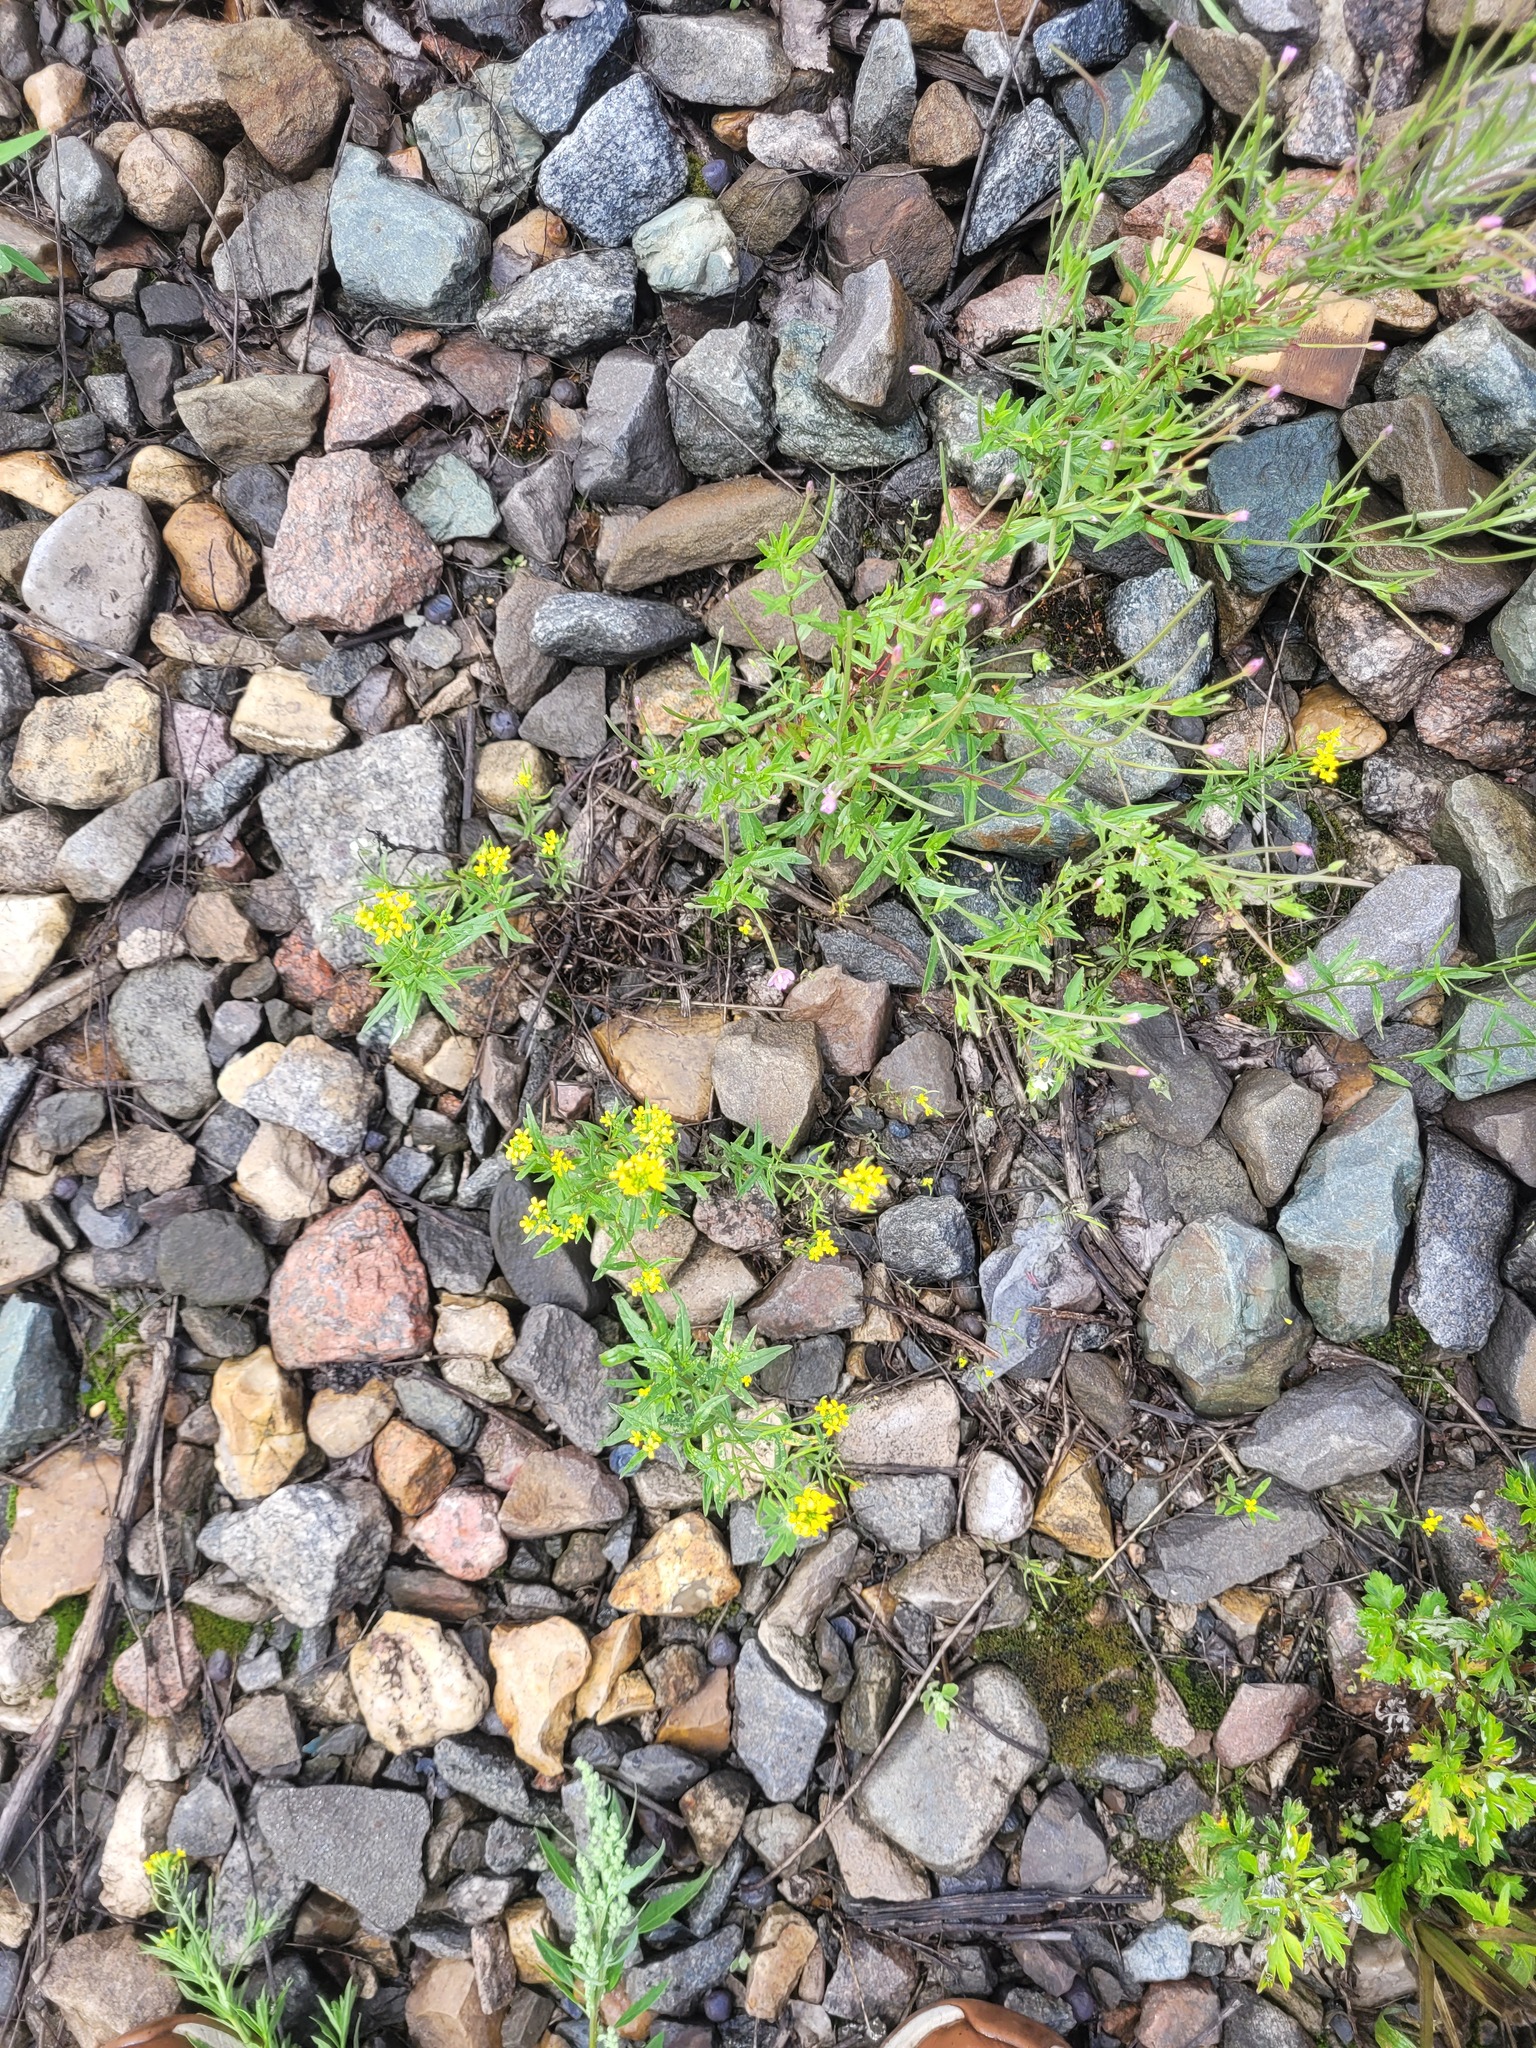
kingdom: Plantae
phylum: Tracheophyta
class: Magnoliopsida
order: Brassicales
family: Brassicaceae
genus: Erysimum
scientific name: Erysimum cheiranthoides
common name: Treacle mustard
